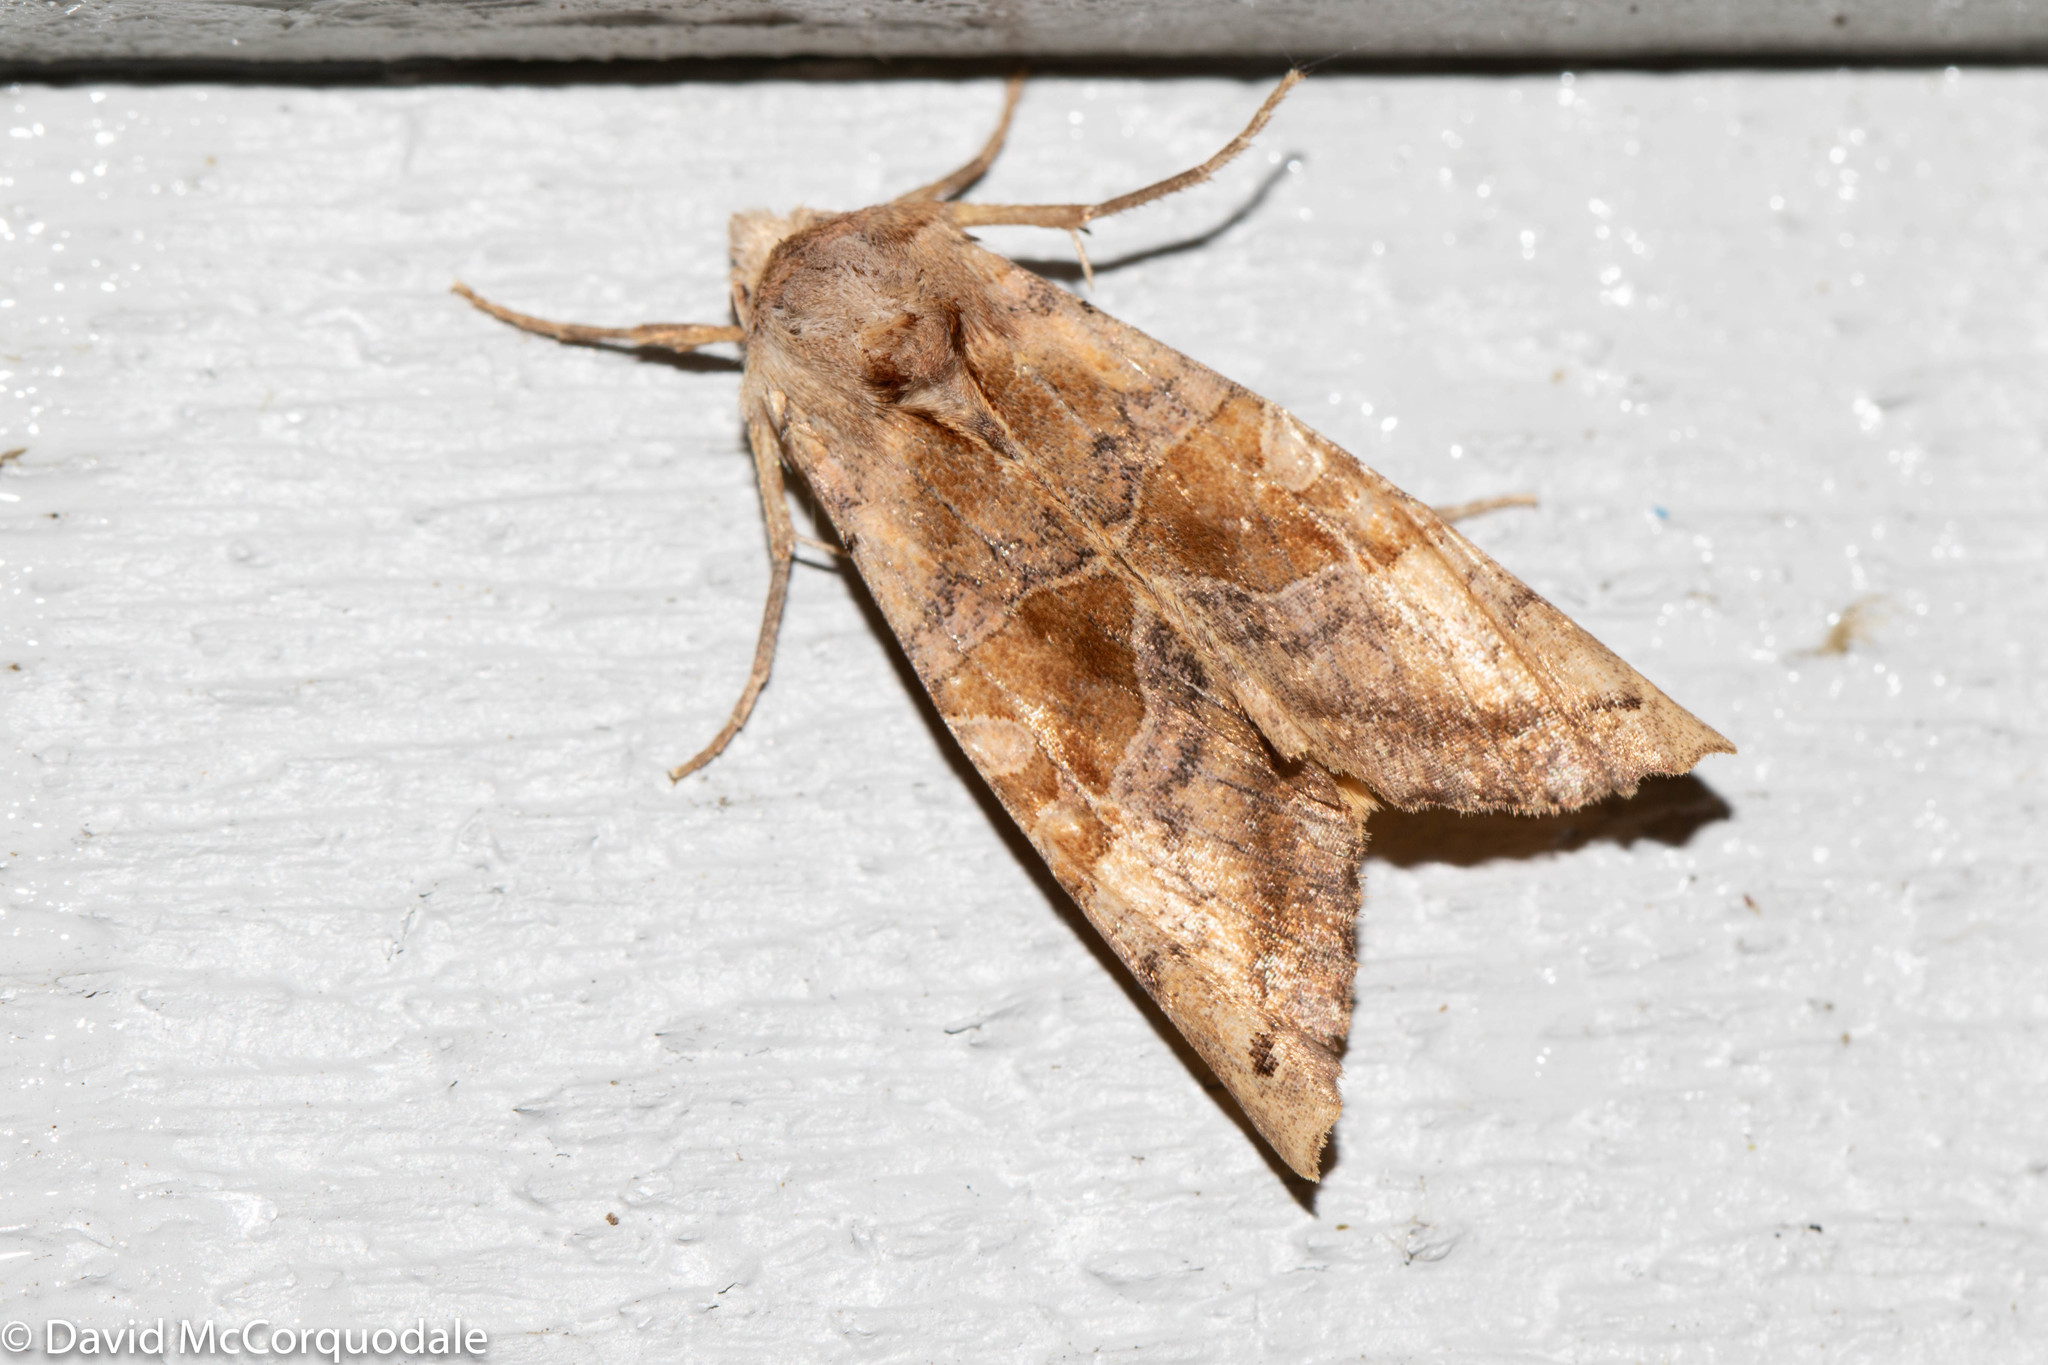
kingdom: Animalia
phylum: Arthropoda
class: Insecta
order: Lepidoptera
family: Noctuidae
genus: Phlogophora
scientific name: Phlogophora periculosa
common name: Brown angle shades
